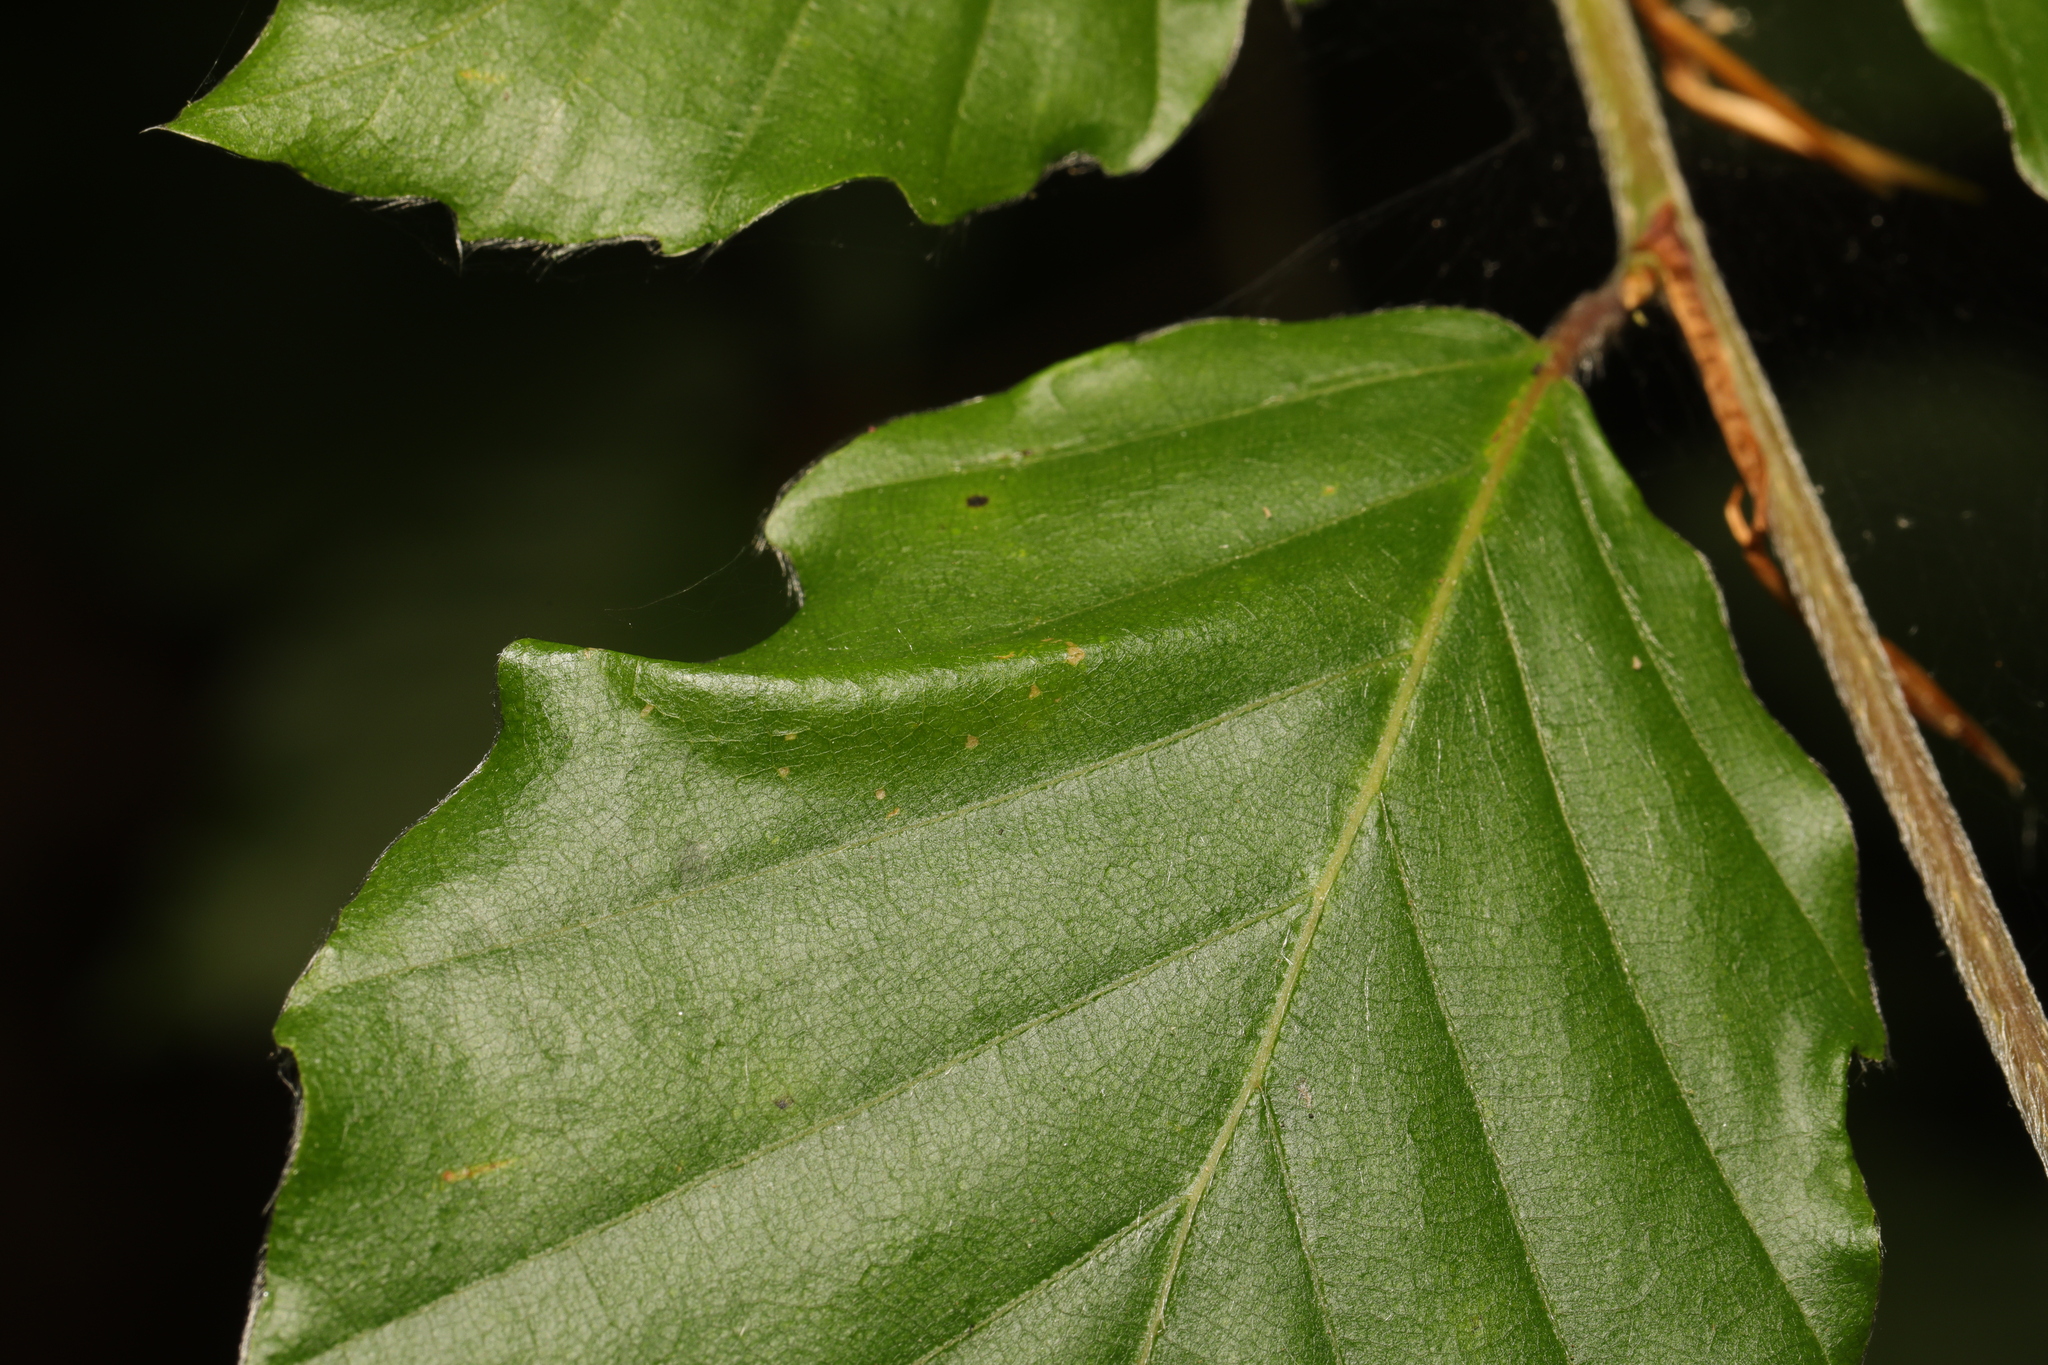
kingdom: Animalia
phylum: Arthropoda
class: Insecta
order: Lepidoptera
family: Gracillariidae
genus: Phyllonorycter
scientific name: Phyllonorycter maestingella
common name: Beech midget
